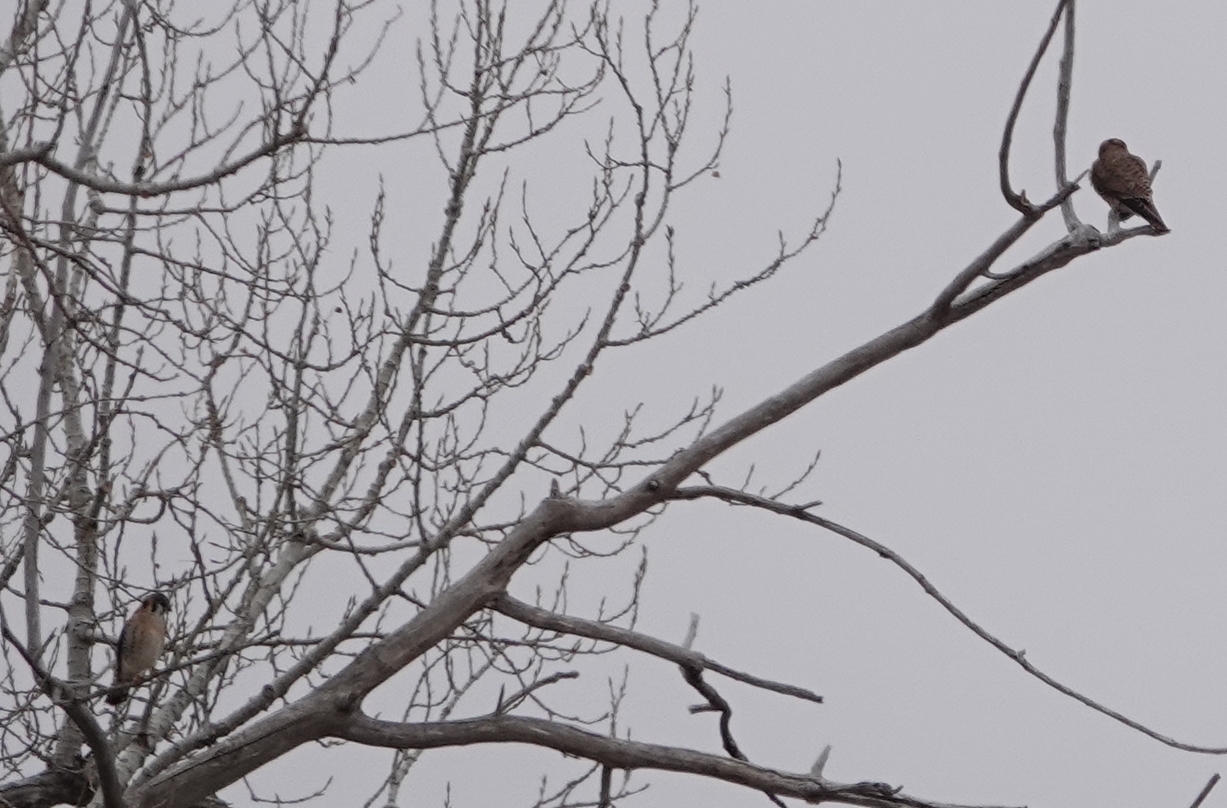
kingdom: Animalia
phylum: Chordata
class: Aves
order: Falconiformes
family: Falconidae
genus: Falco
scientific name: Falco sparverius
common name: American kestrel
